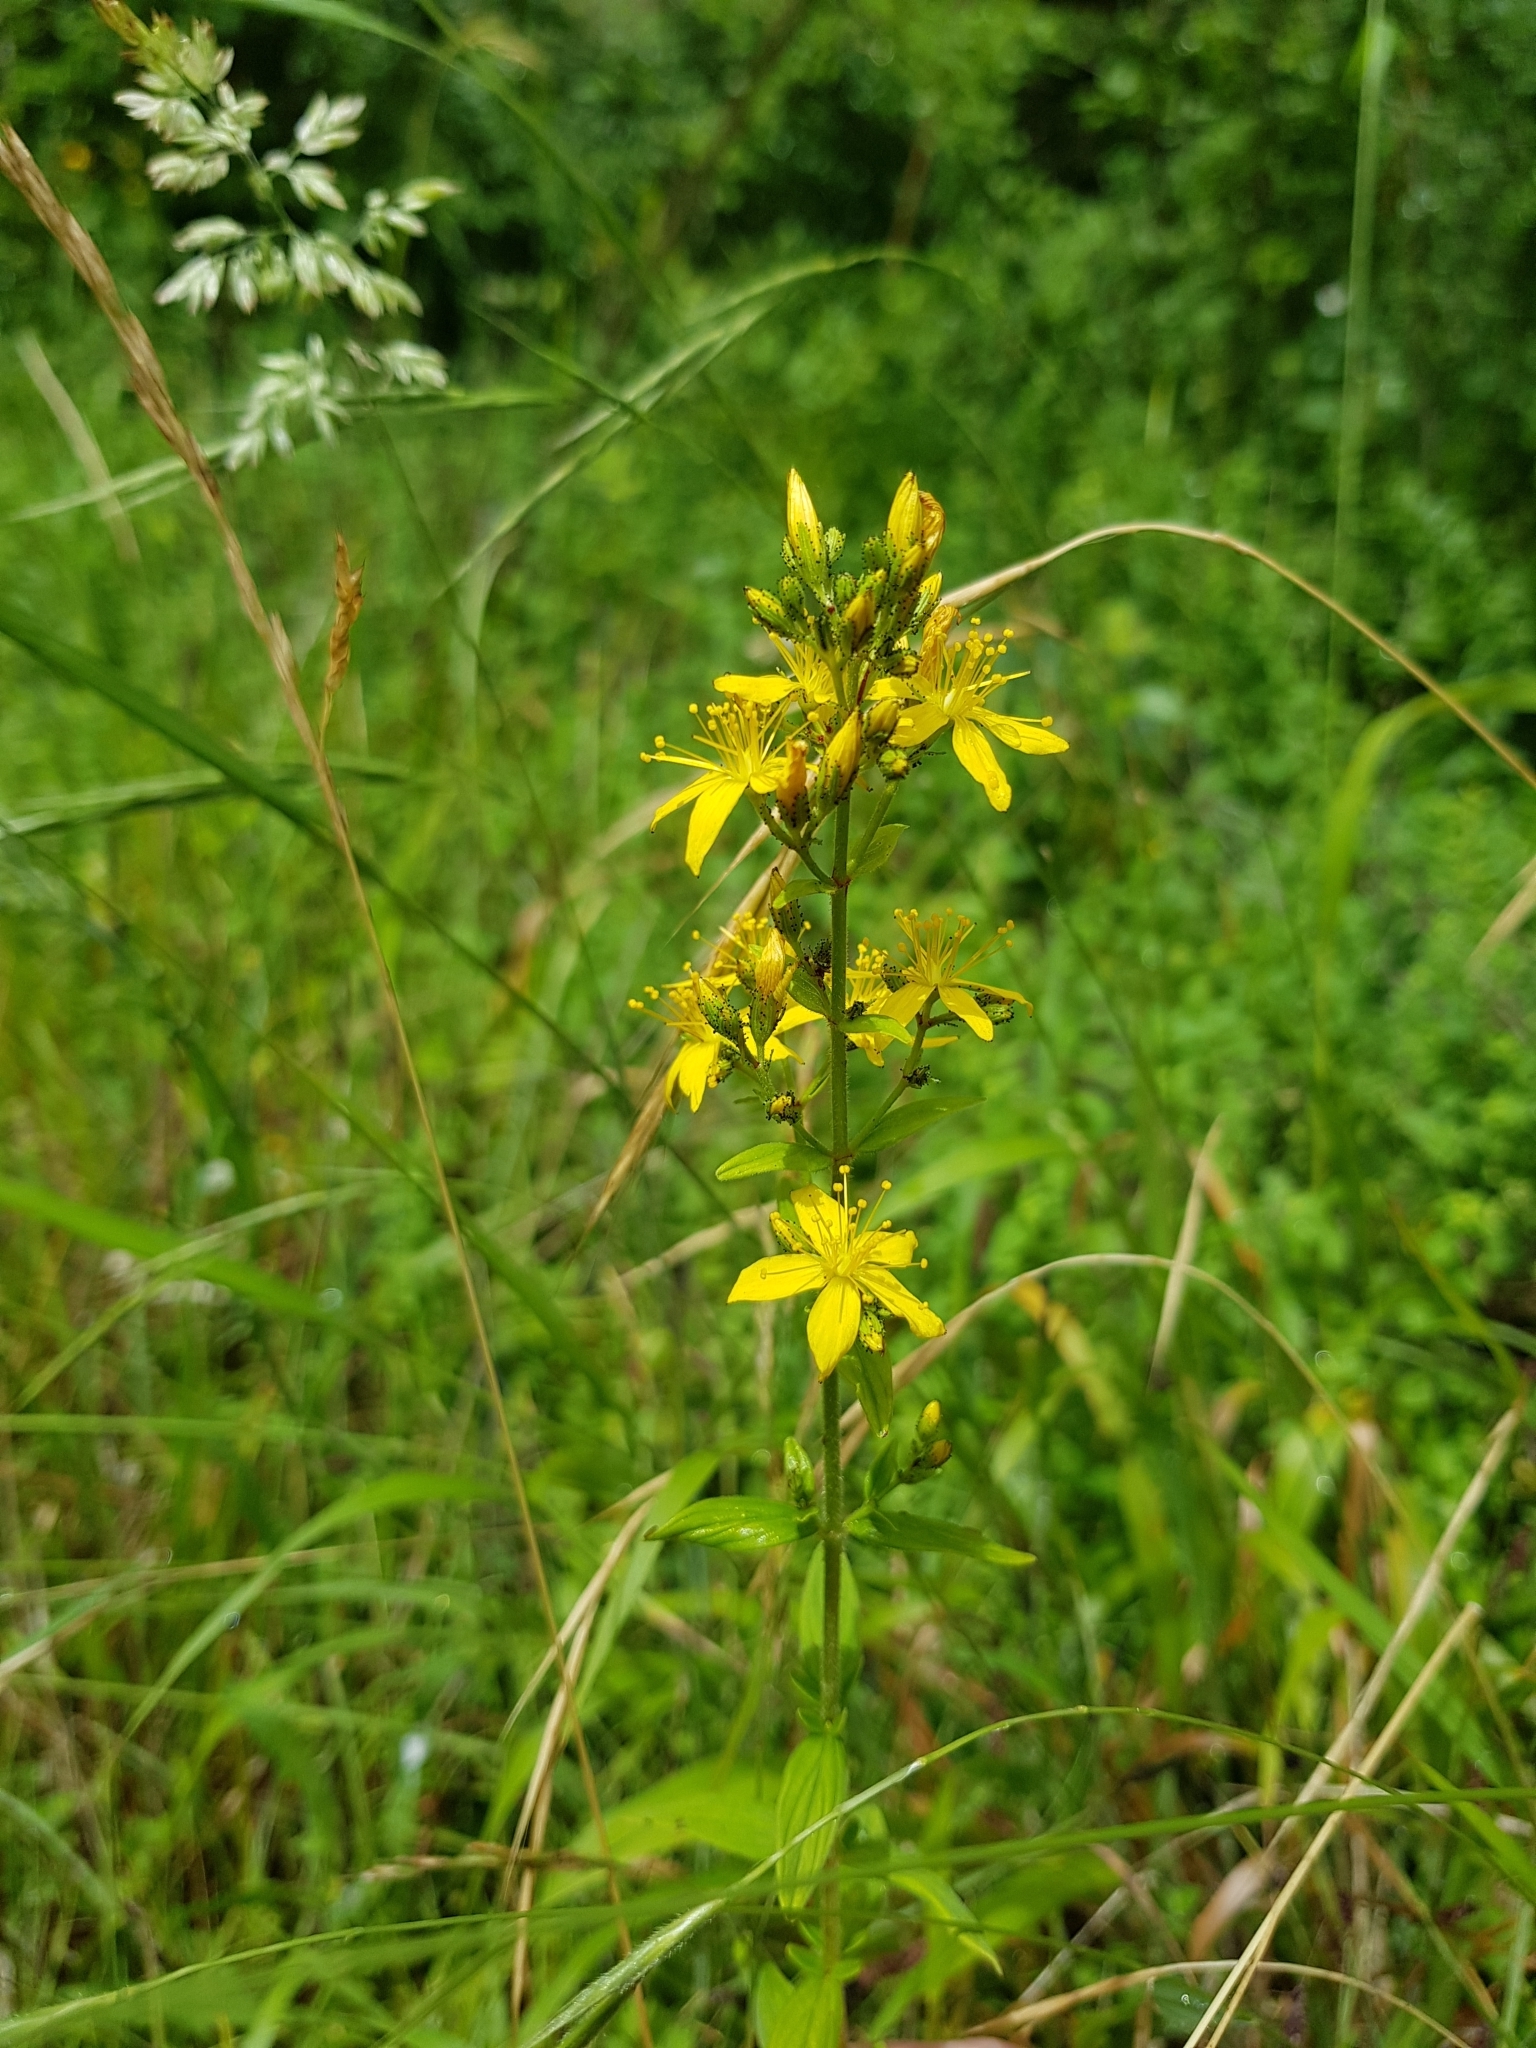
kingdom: Plantae
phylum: Tracheophyta
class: Magnoliopsida
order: Malpighiales
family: Hypericaceae
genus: Hypericum
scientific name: Hypericum hirsutum
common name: Hairy st. john's-wort
